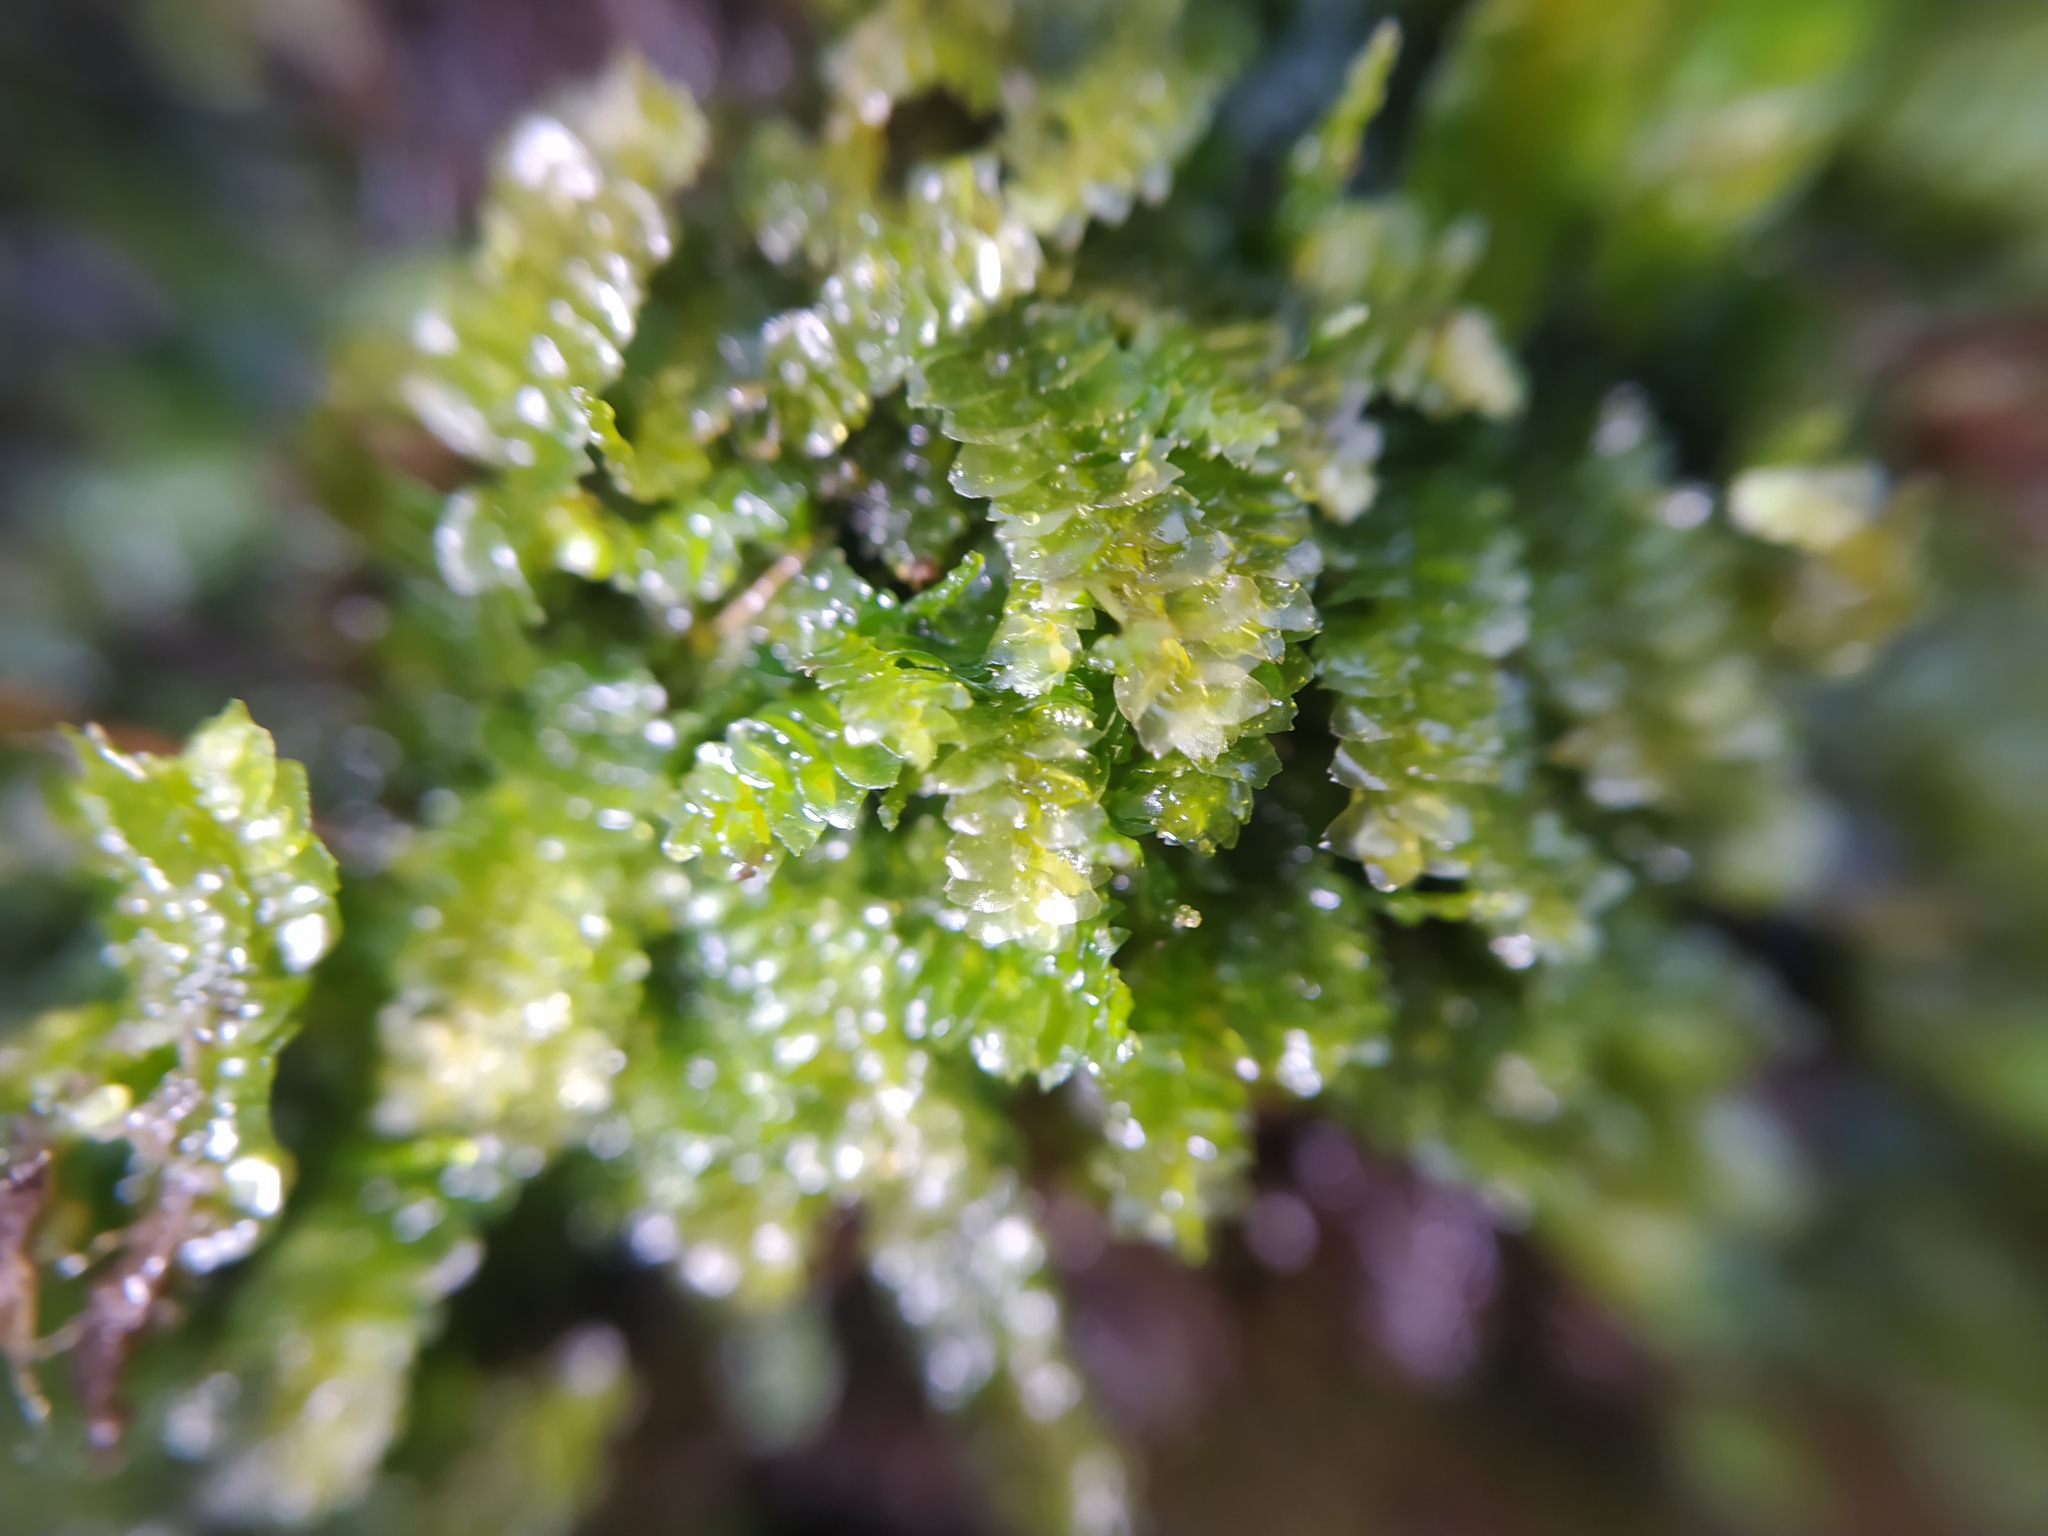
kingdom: Plantae
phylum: Marchantiophyta
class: Jungermanniopsida
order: Jungermanniales
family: Calypogeiaceae
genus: Calypogeia
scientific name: Calypogeia fissa
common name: Common pouchwort
